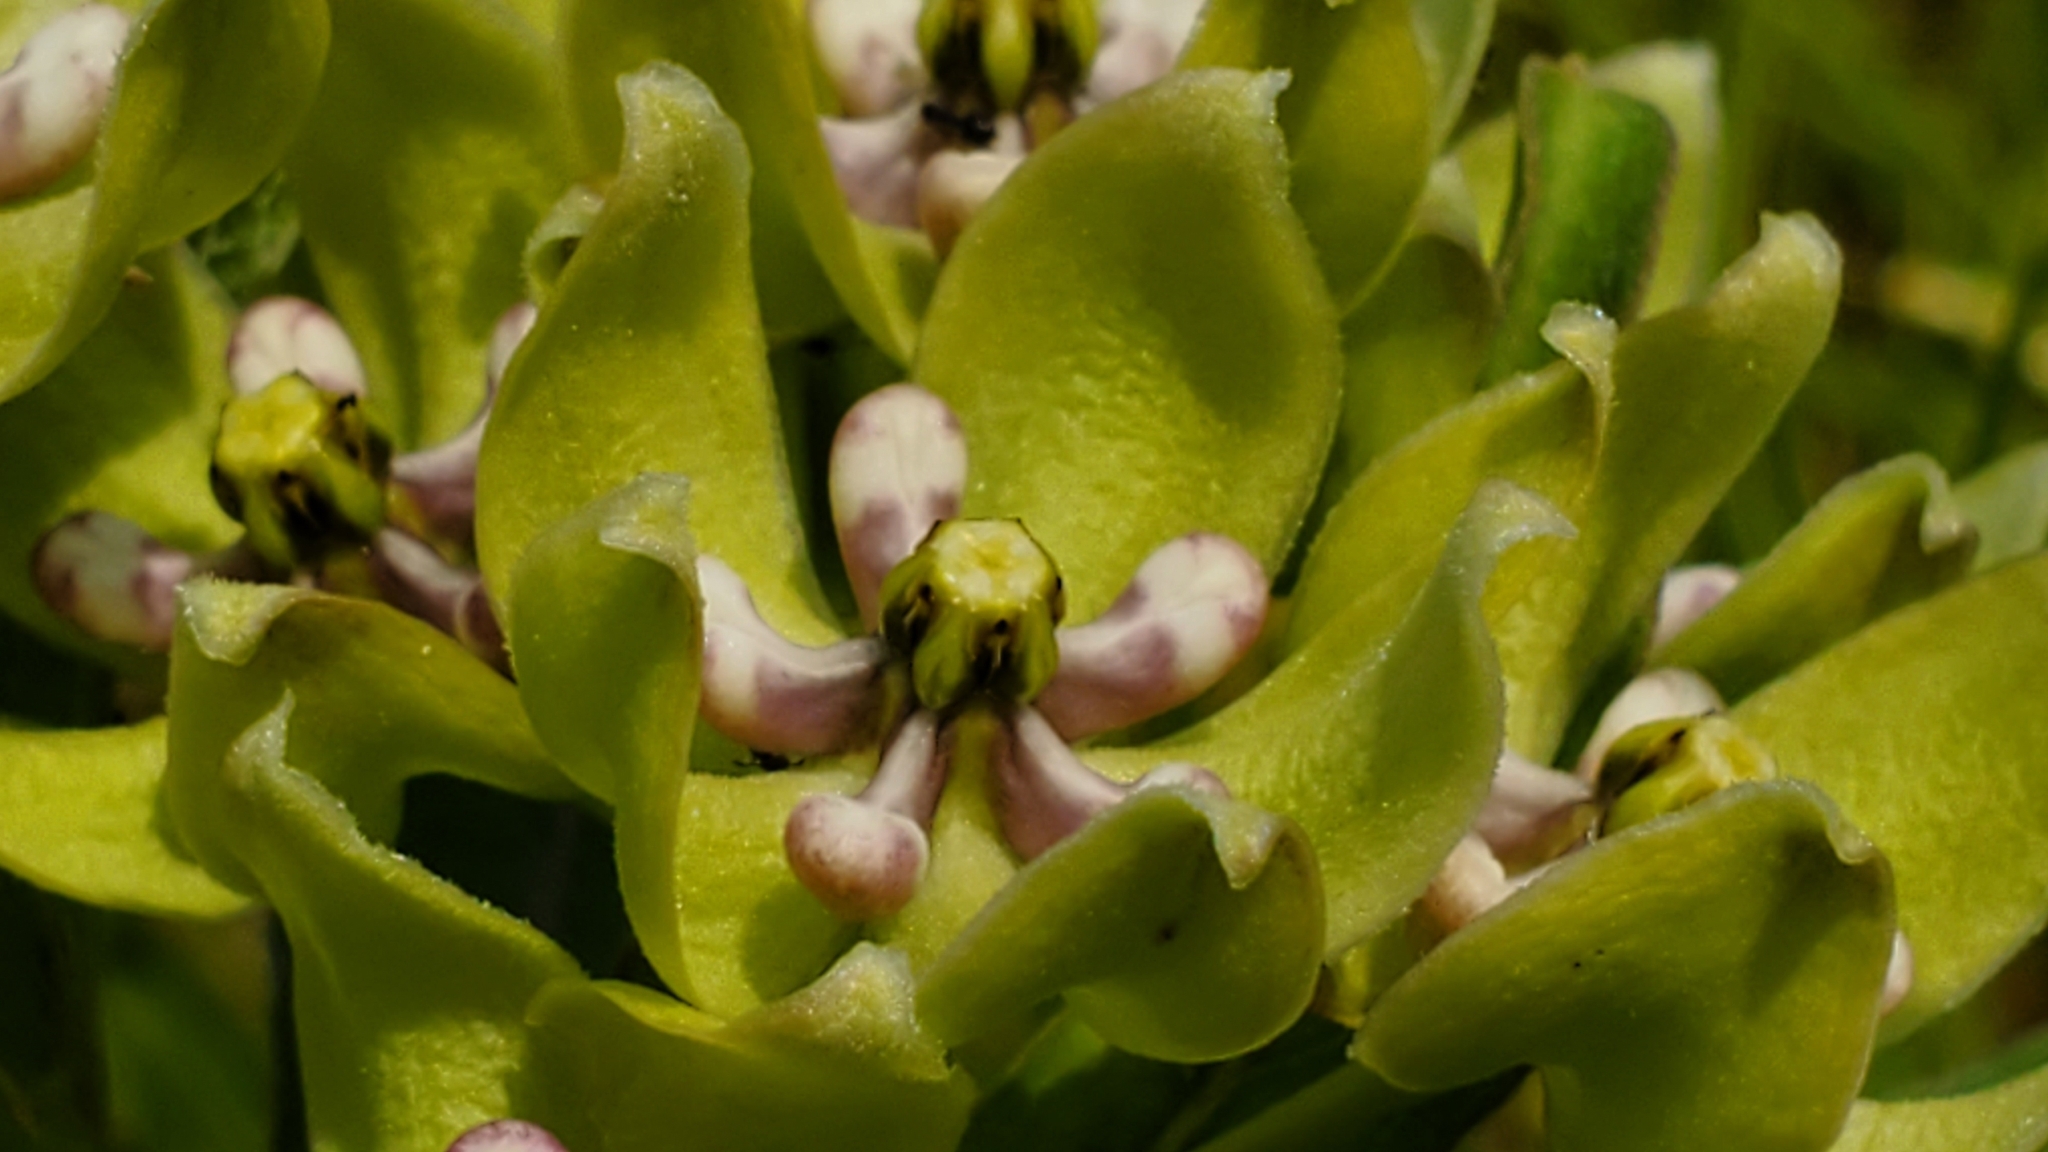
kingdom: Plantae
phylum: Tracheophyta
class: Magnoliopsida
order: Gentianales
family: Apocynaceae
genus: Asclepias
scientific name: Asclepias viridis
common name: Antelope-horns
